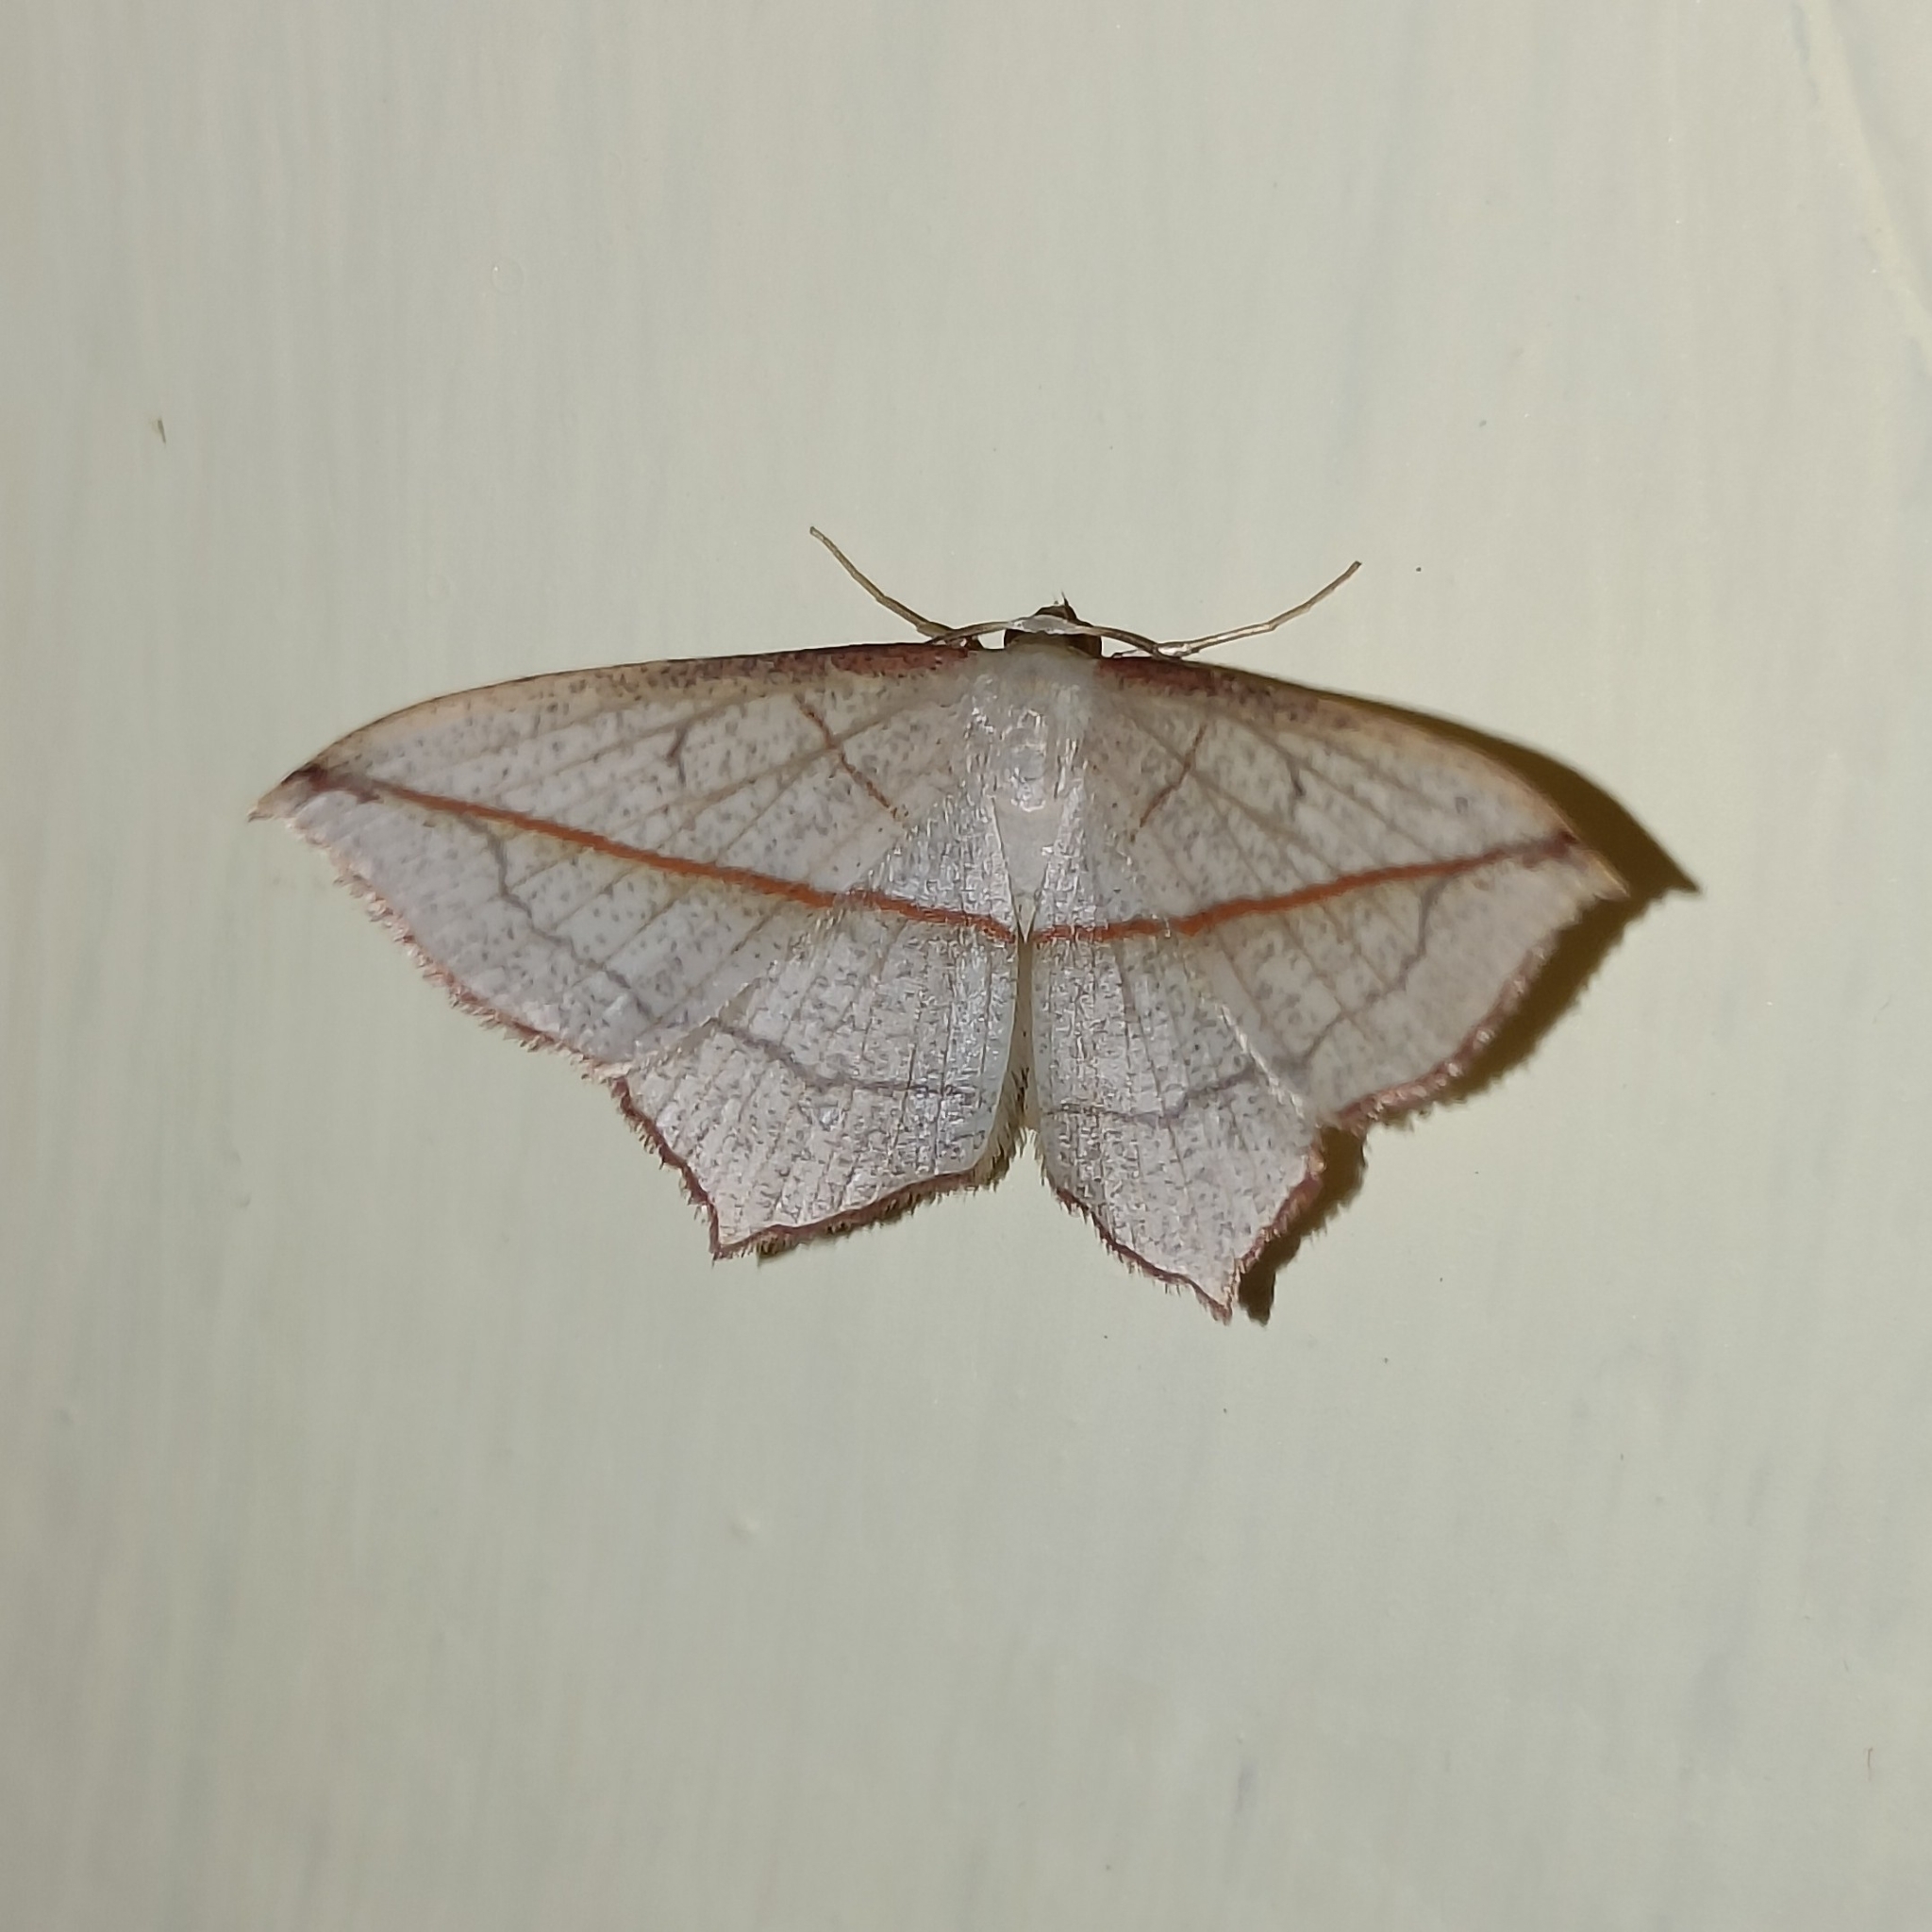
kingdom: Animalia
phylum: Arthropoda
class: Insecta
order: Lepidoptera
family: Geometridae
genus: Timandra
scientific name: Timandra correspondens
